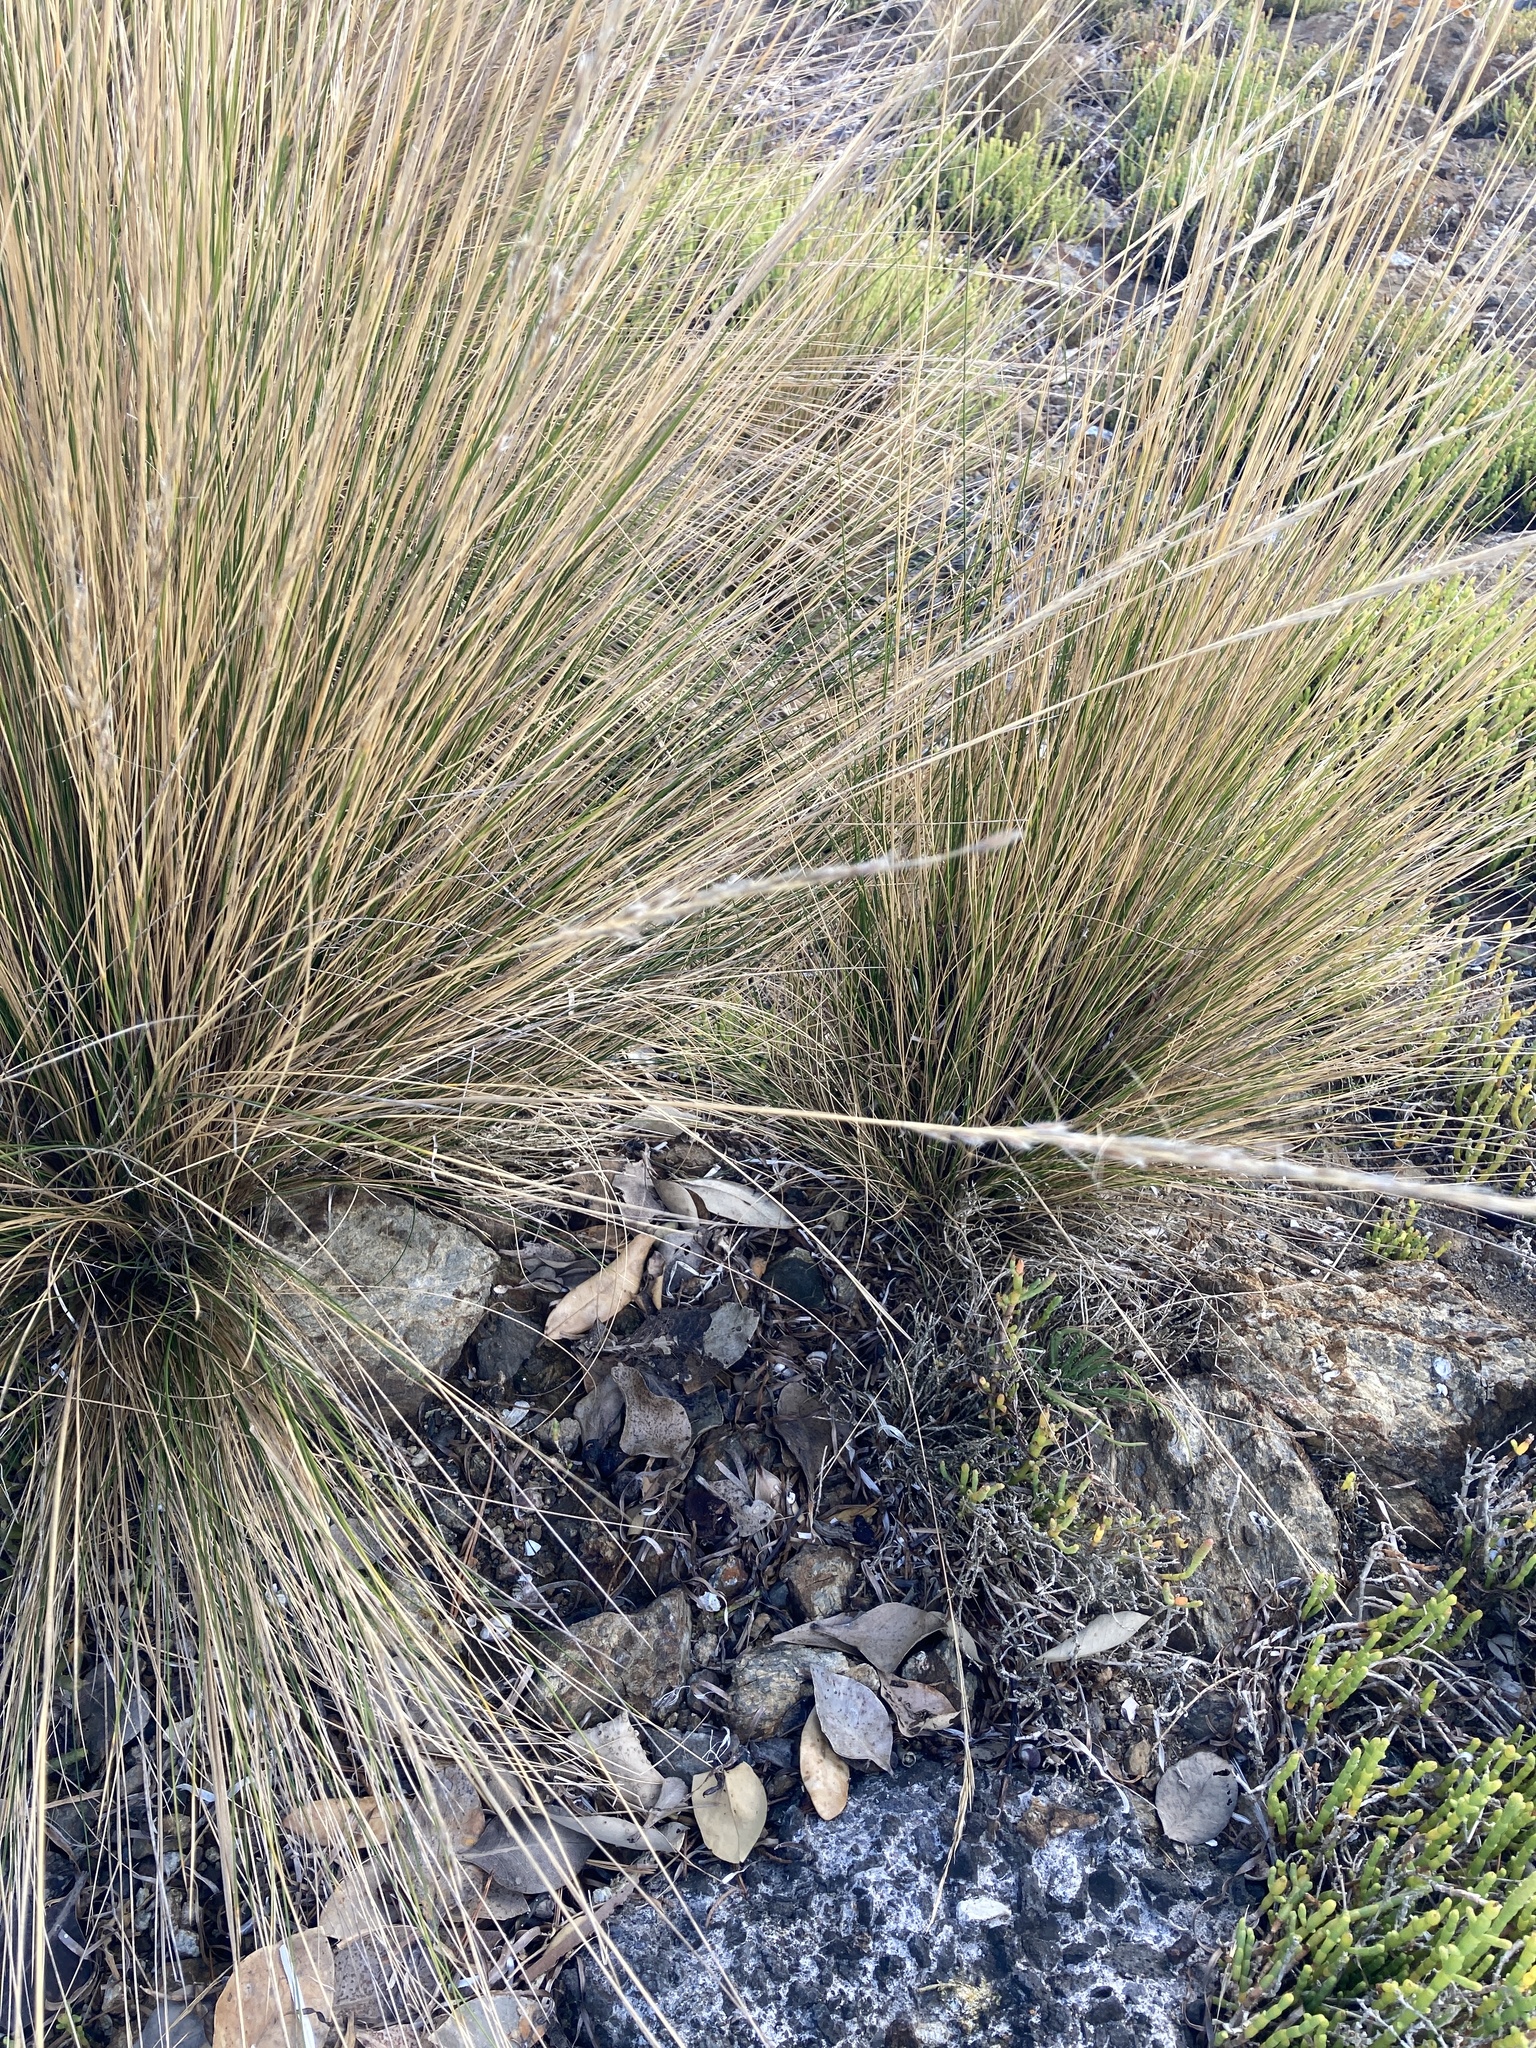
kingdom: Plantae
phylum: Tracheophyta
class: Liliopsida
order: Poales
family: Poaceae
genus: Austrostipa
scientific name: Austrostipa stipoides
